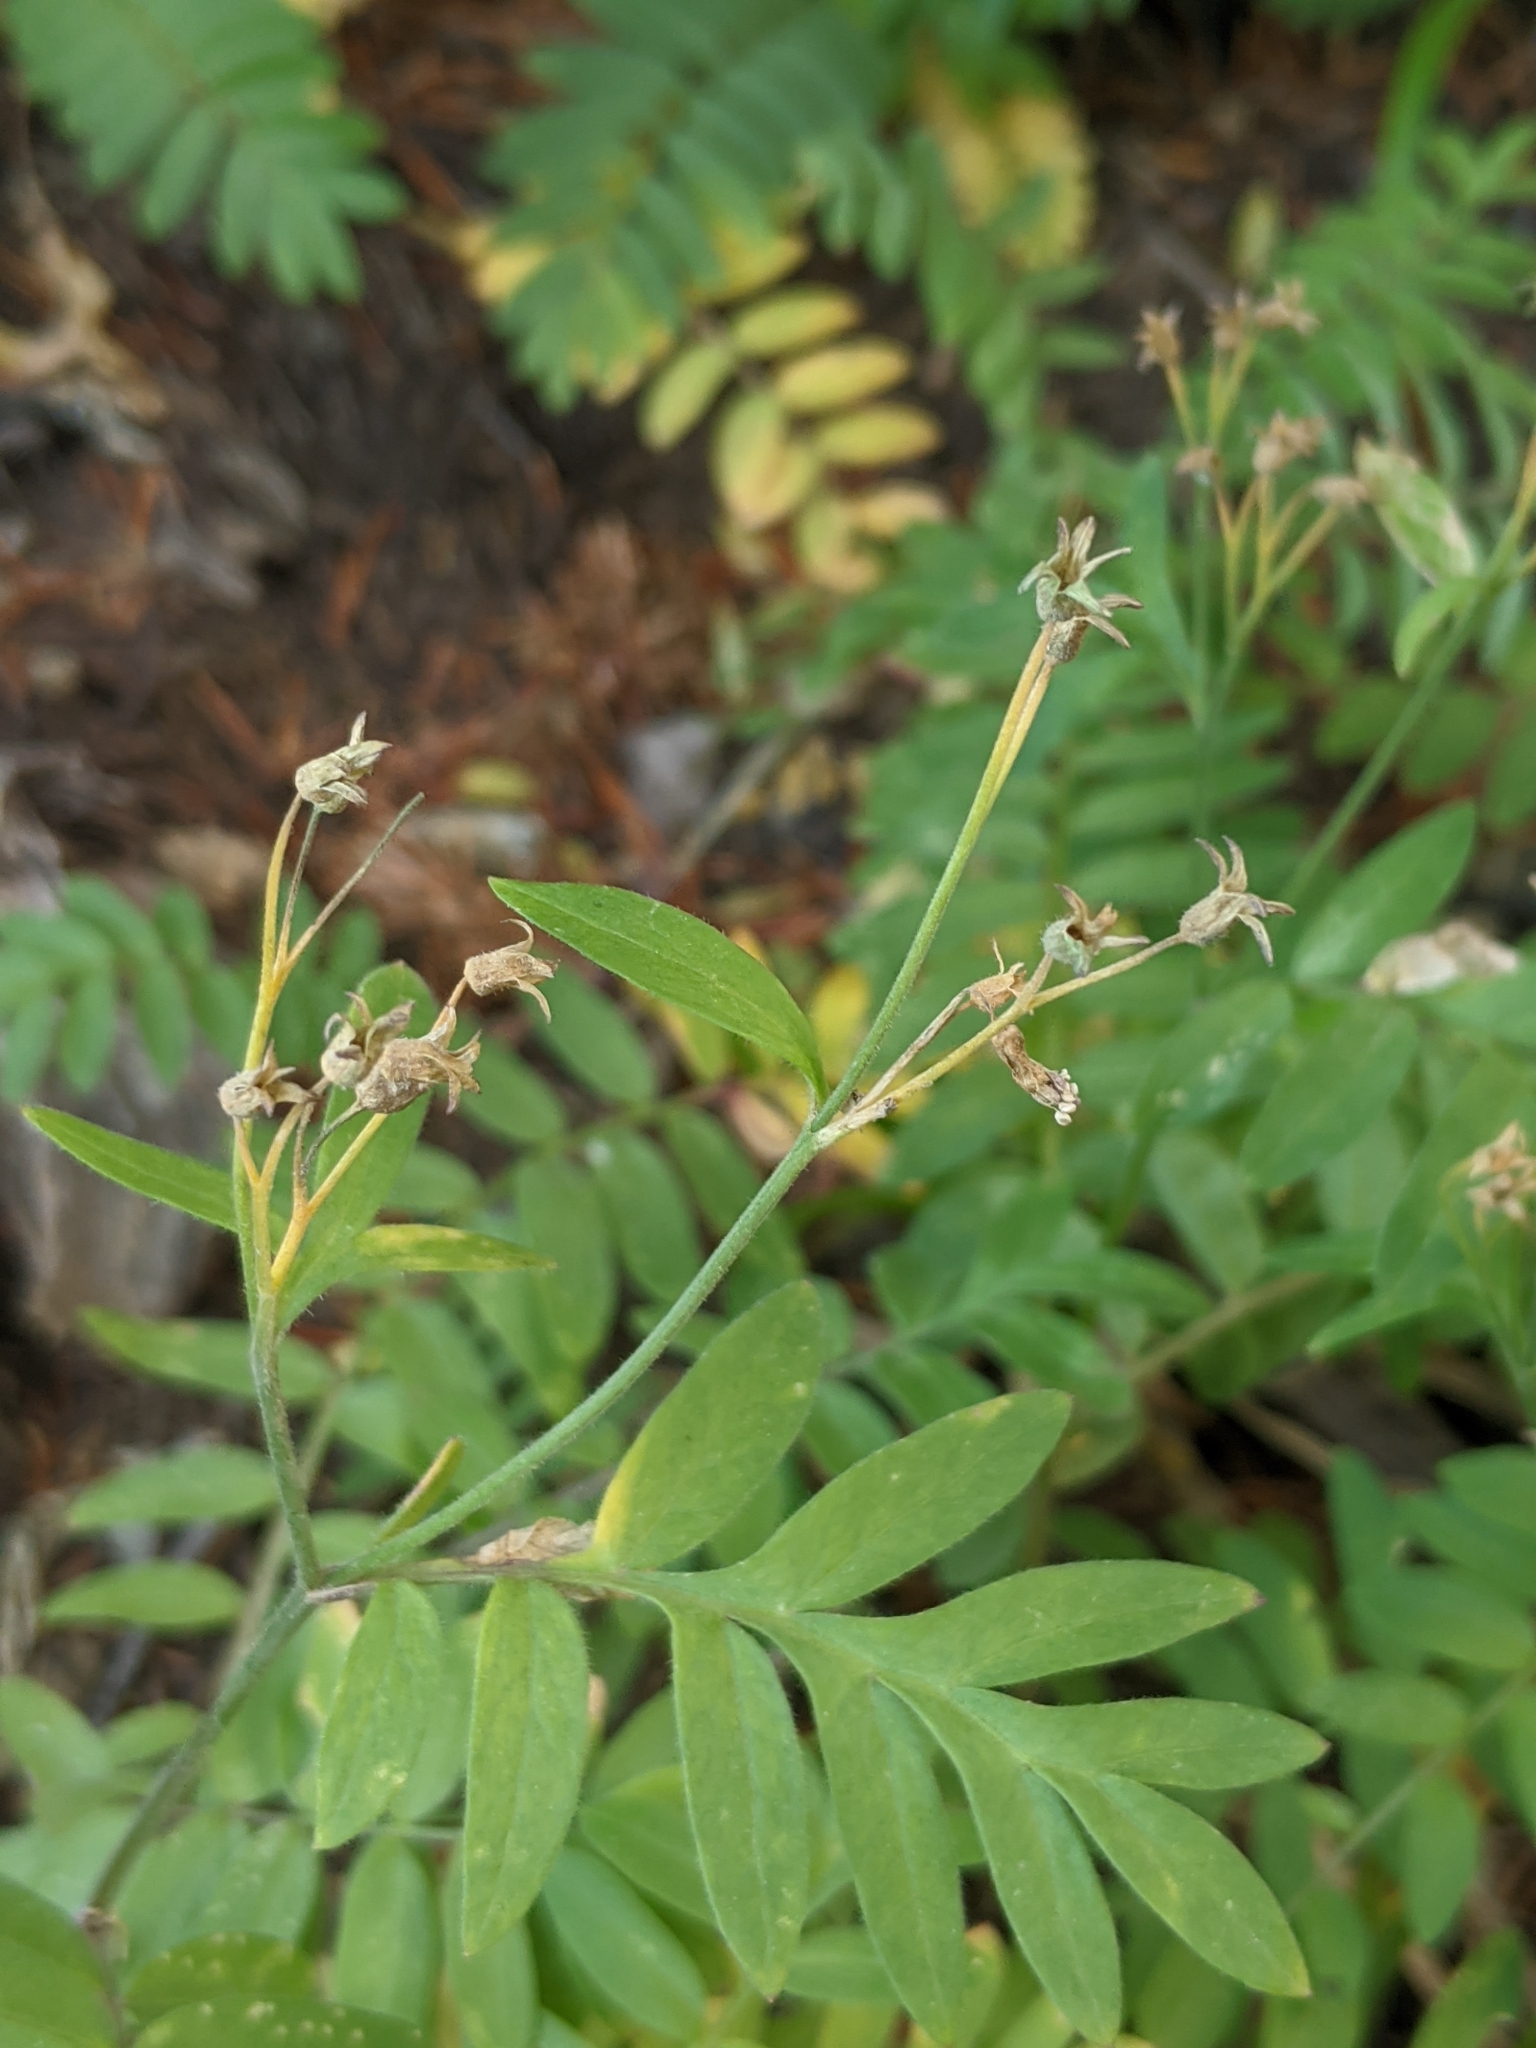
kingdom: Plantae
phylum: Tracheophyta
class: Magnoliopsida
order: Ericales
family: Polemoniaceae
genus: Polemonium
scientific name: Polemonium californicum
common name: California jacob's ladder
